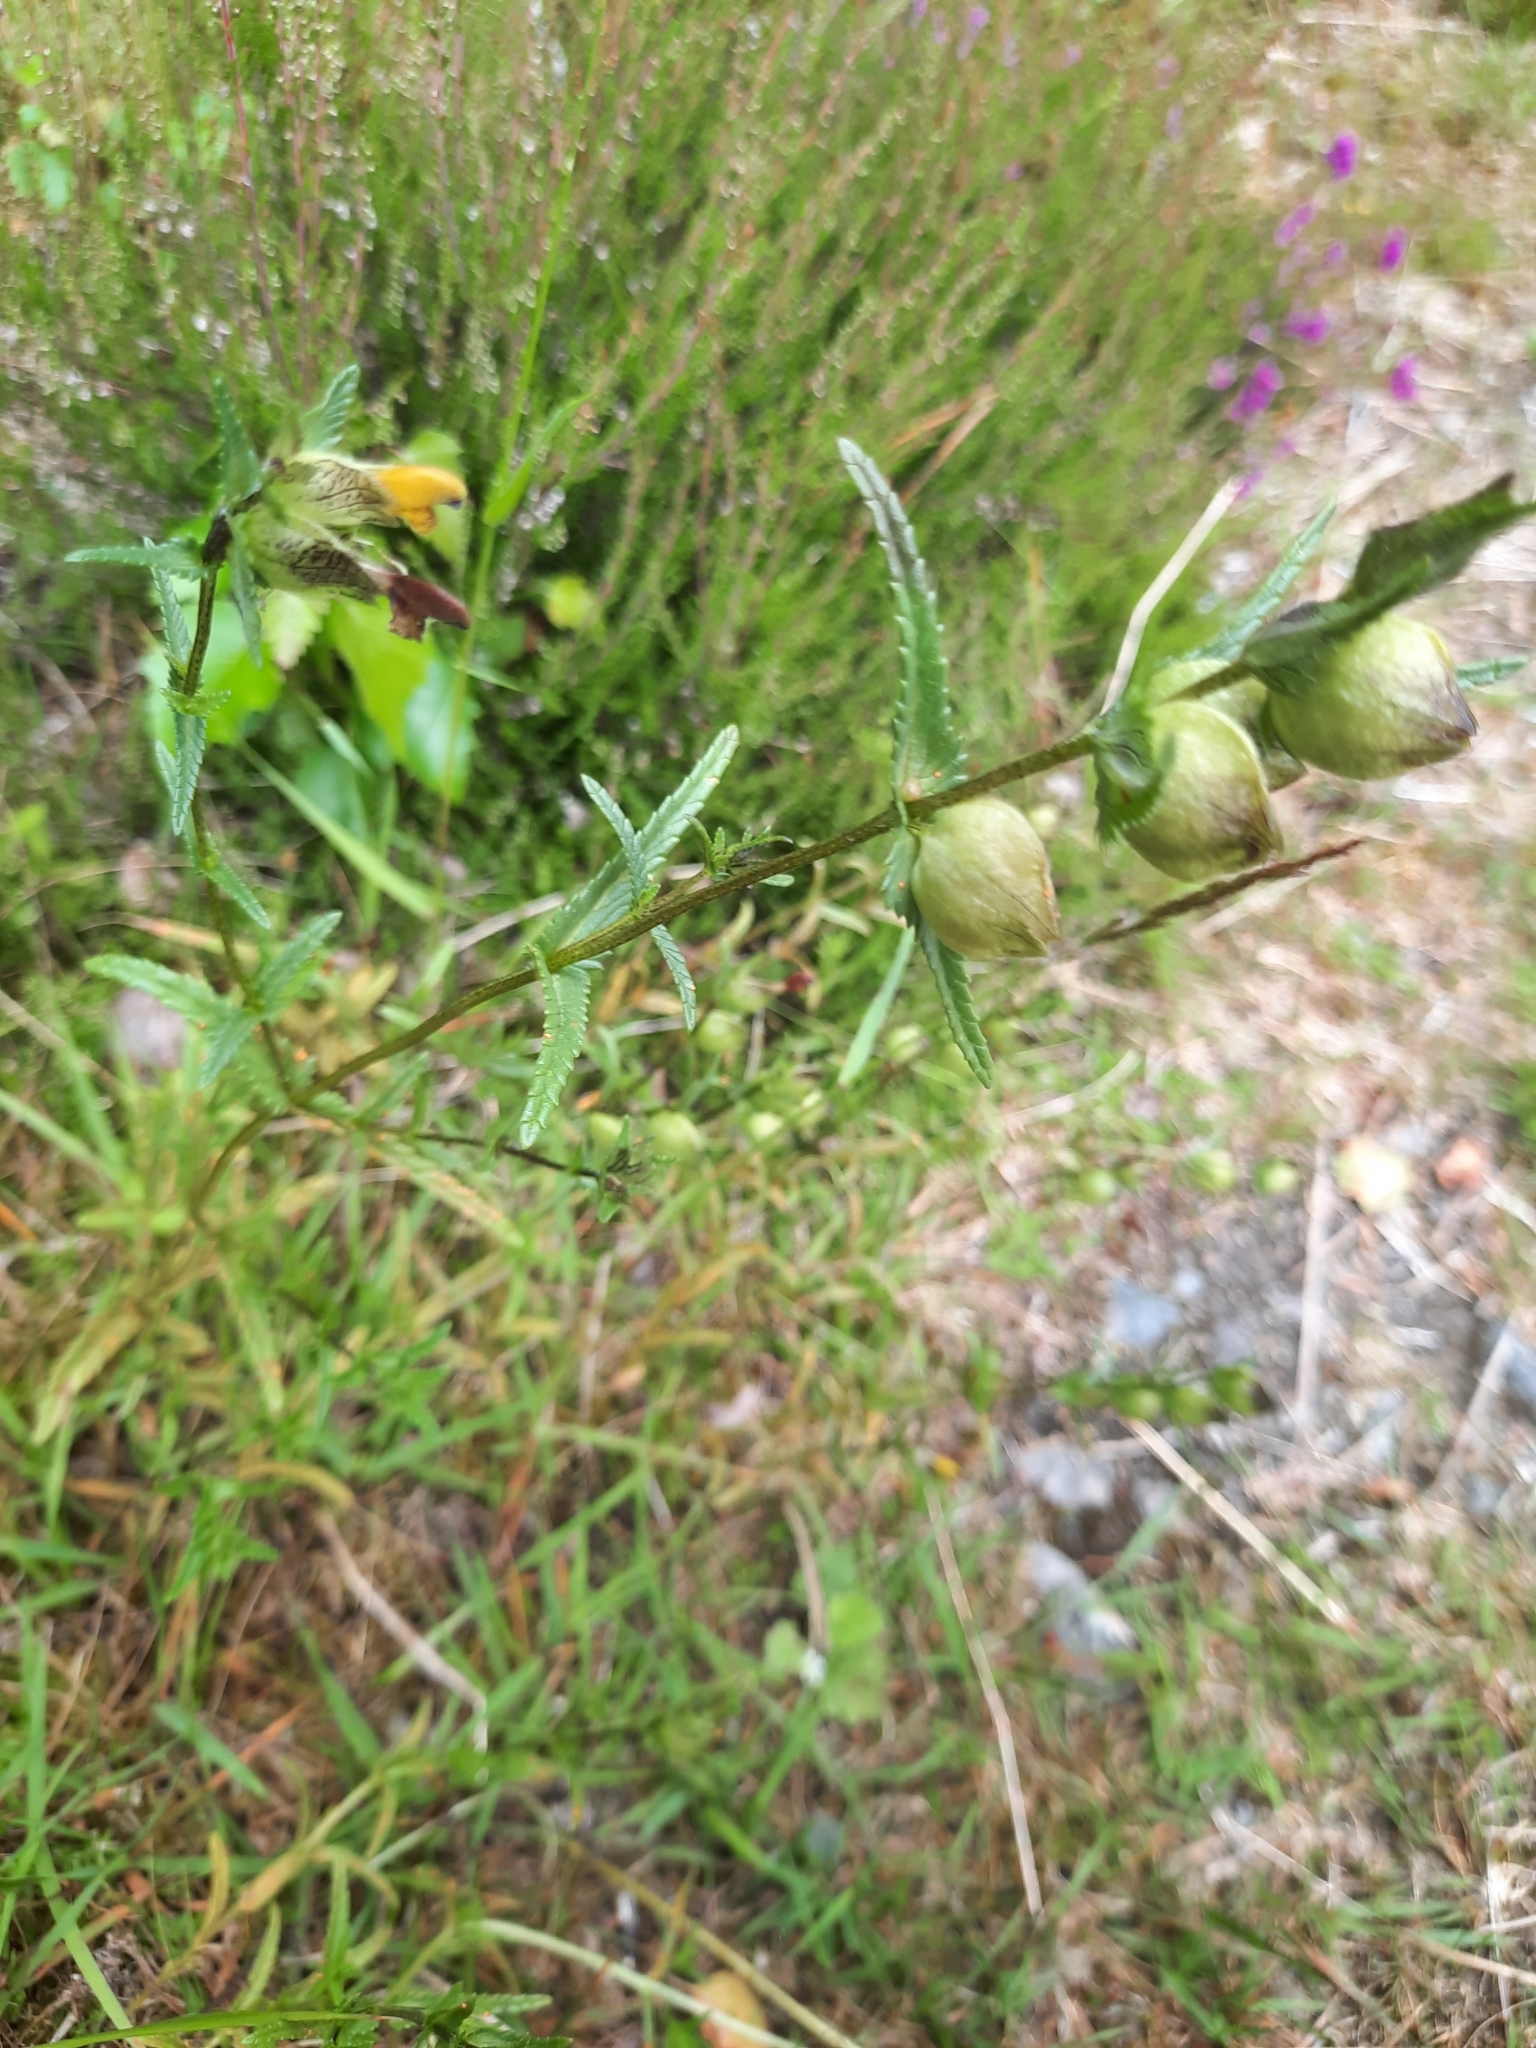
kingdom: Plantae
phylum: Tracheophyta
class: Magnoliopsida
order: Lamiales
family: Orobanchaceae
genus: Rhinanthus
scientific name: Rhinanthus minor
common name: Yellow-rattle
